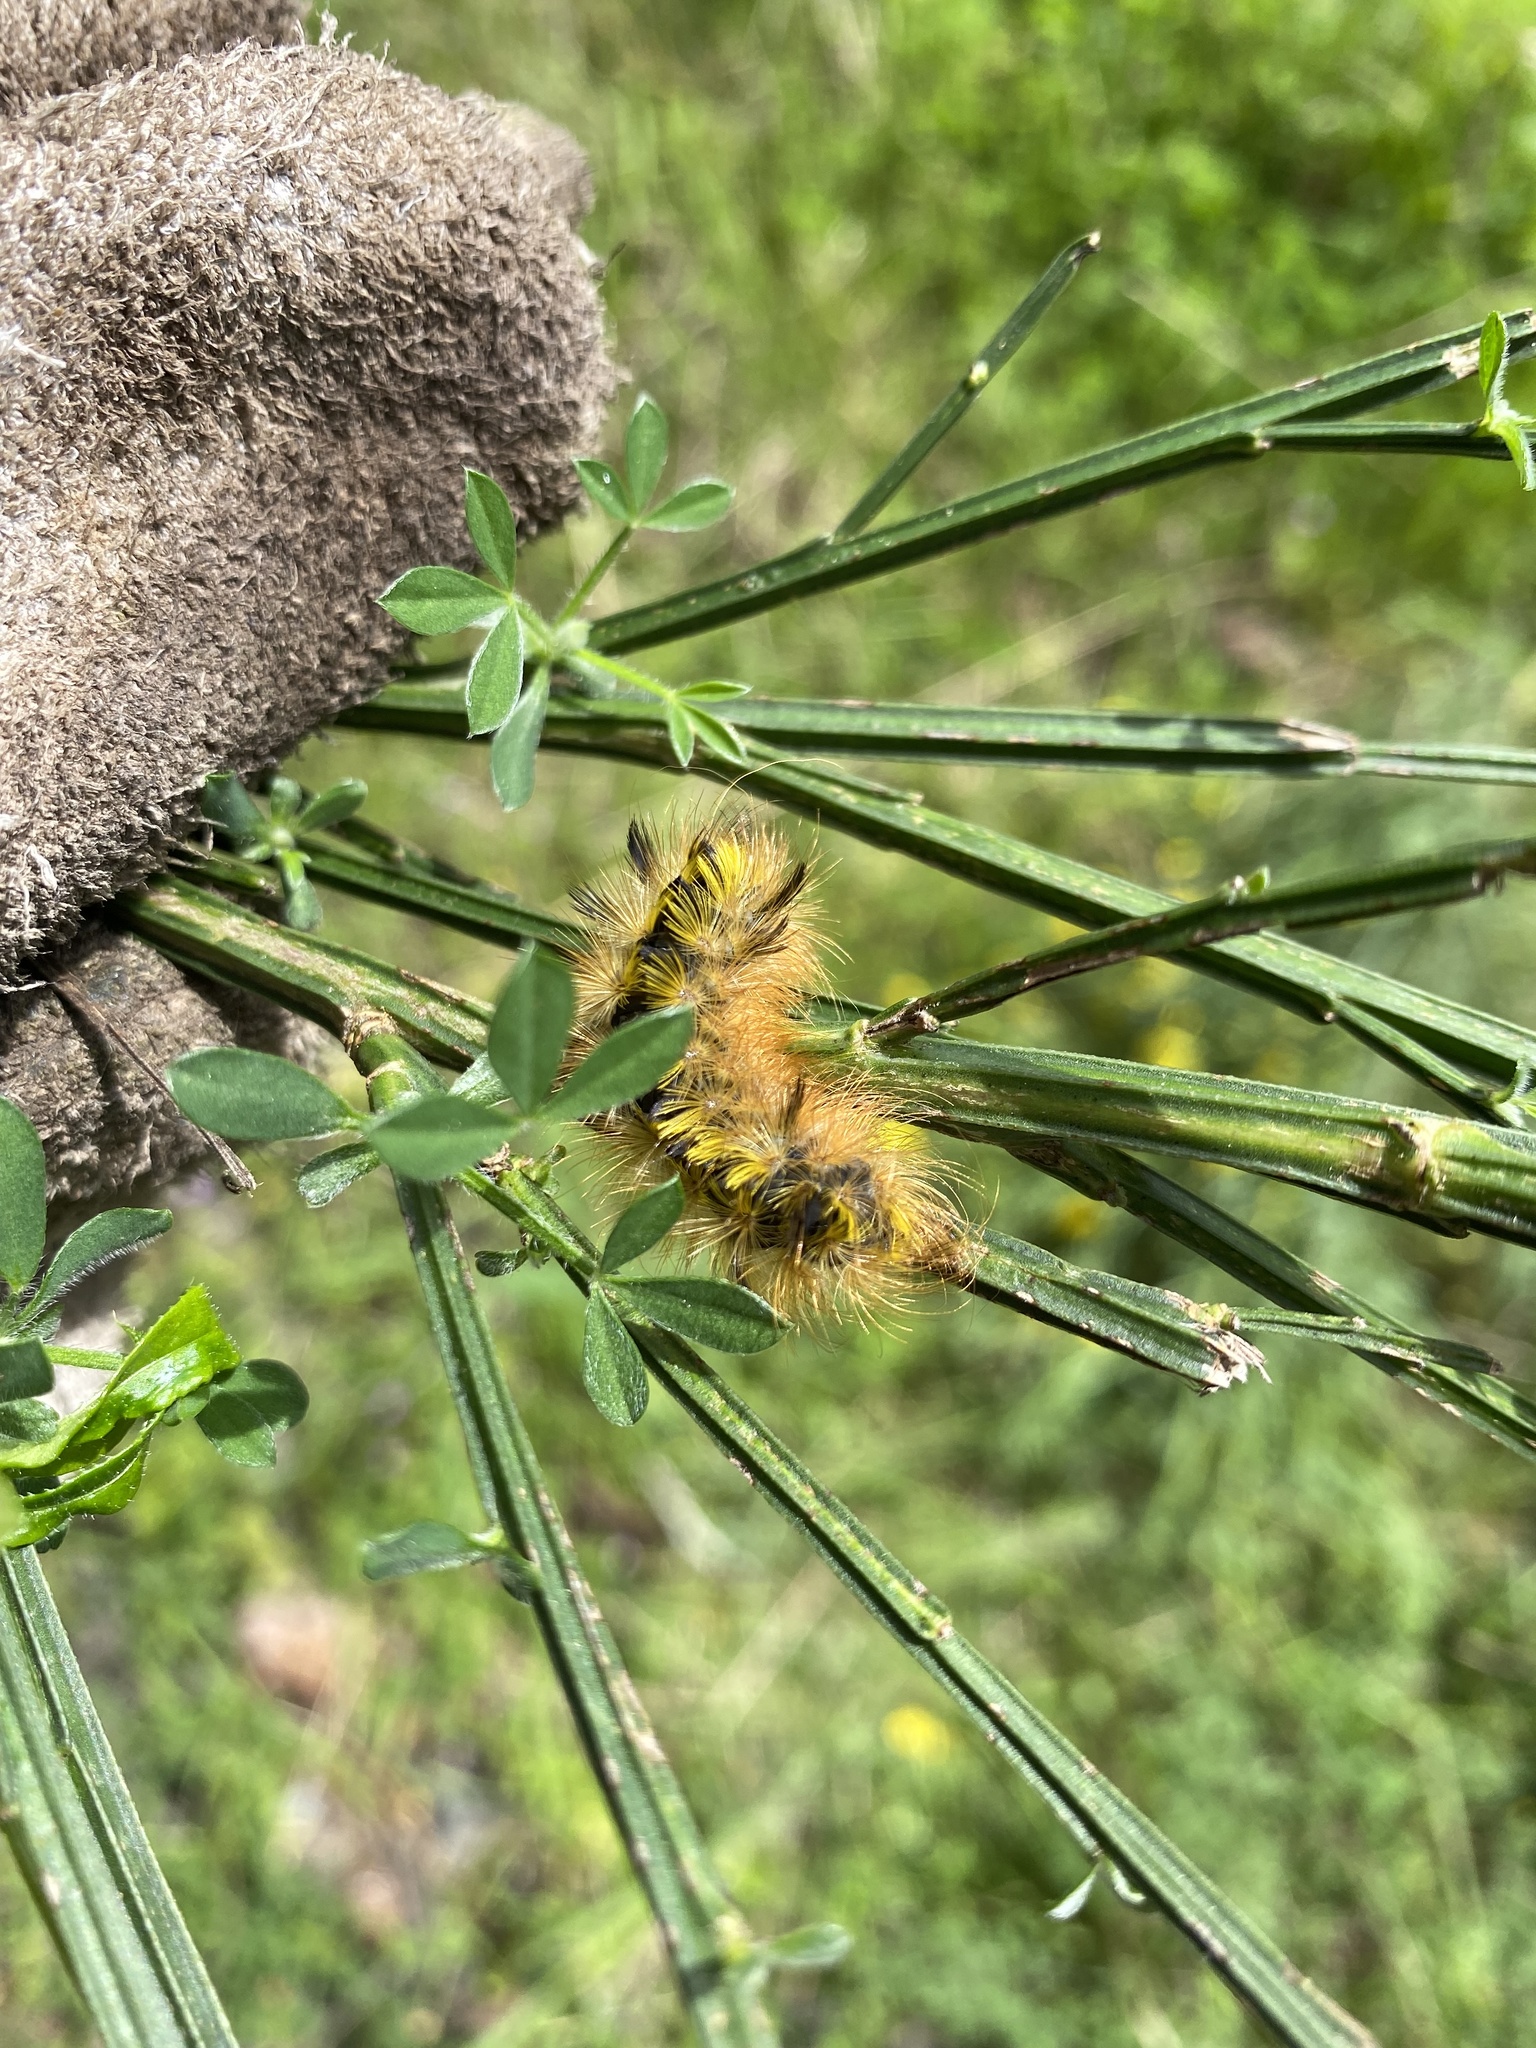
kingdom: Animalia
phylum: Arthropoda
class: Insecta
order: Lepidoptera
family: Erebidae
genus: Lophocampa
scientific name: Lophocampa argentata
